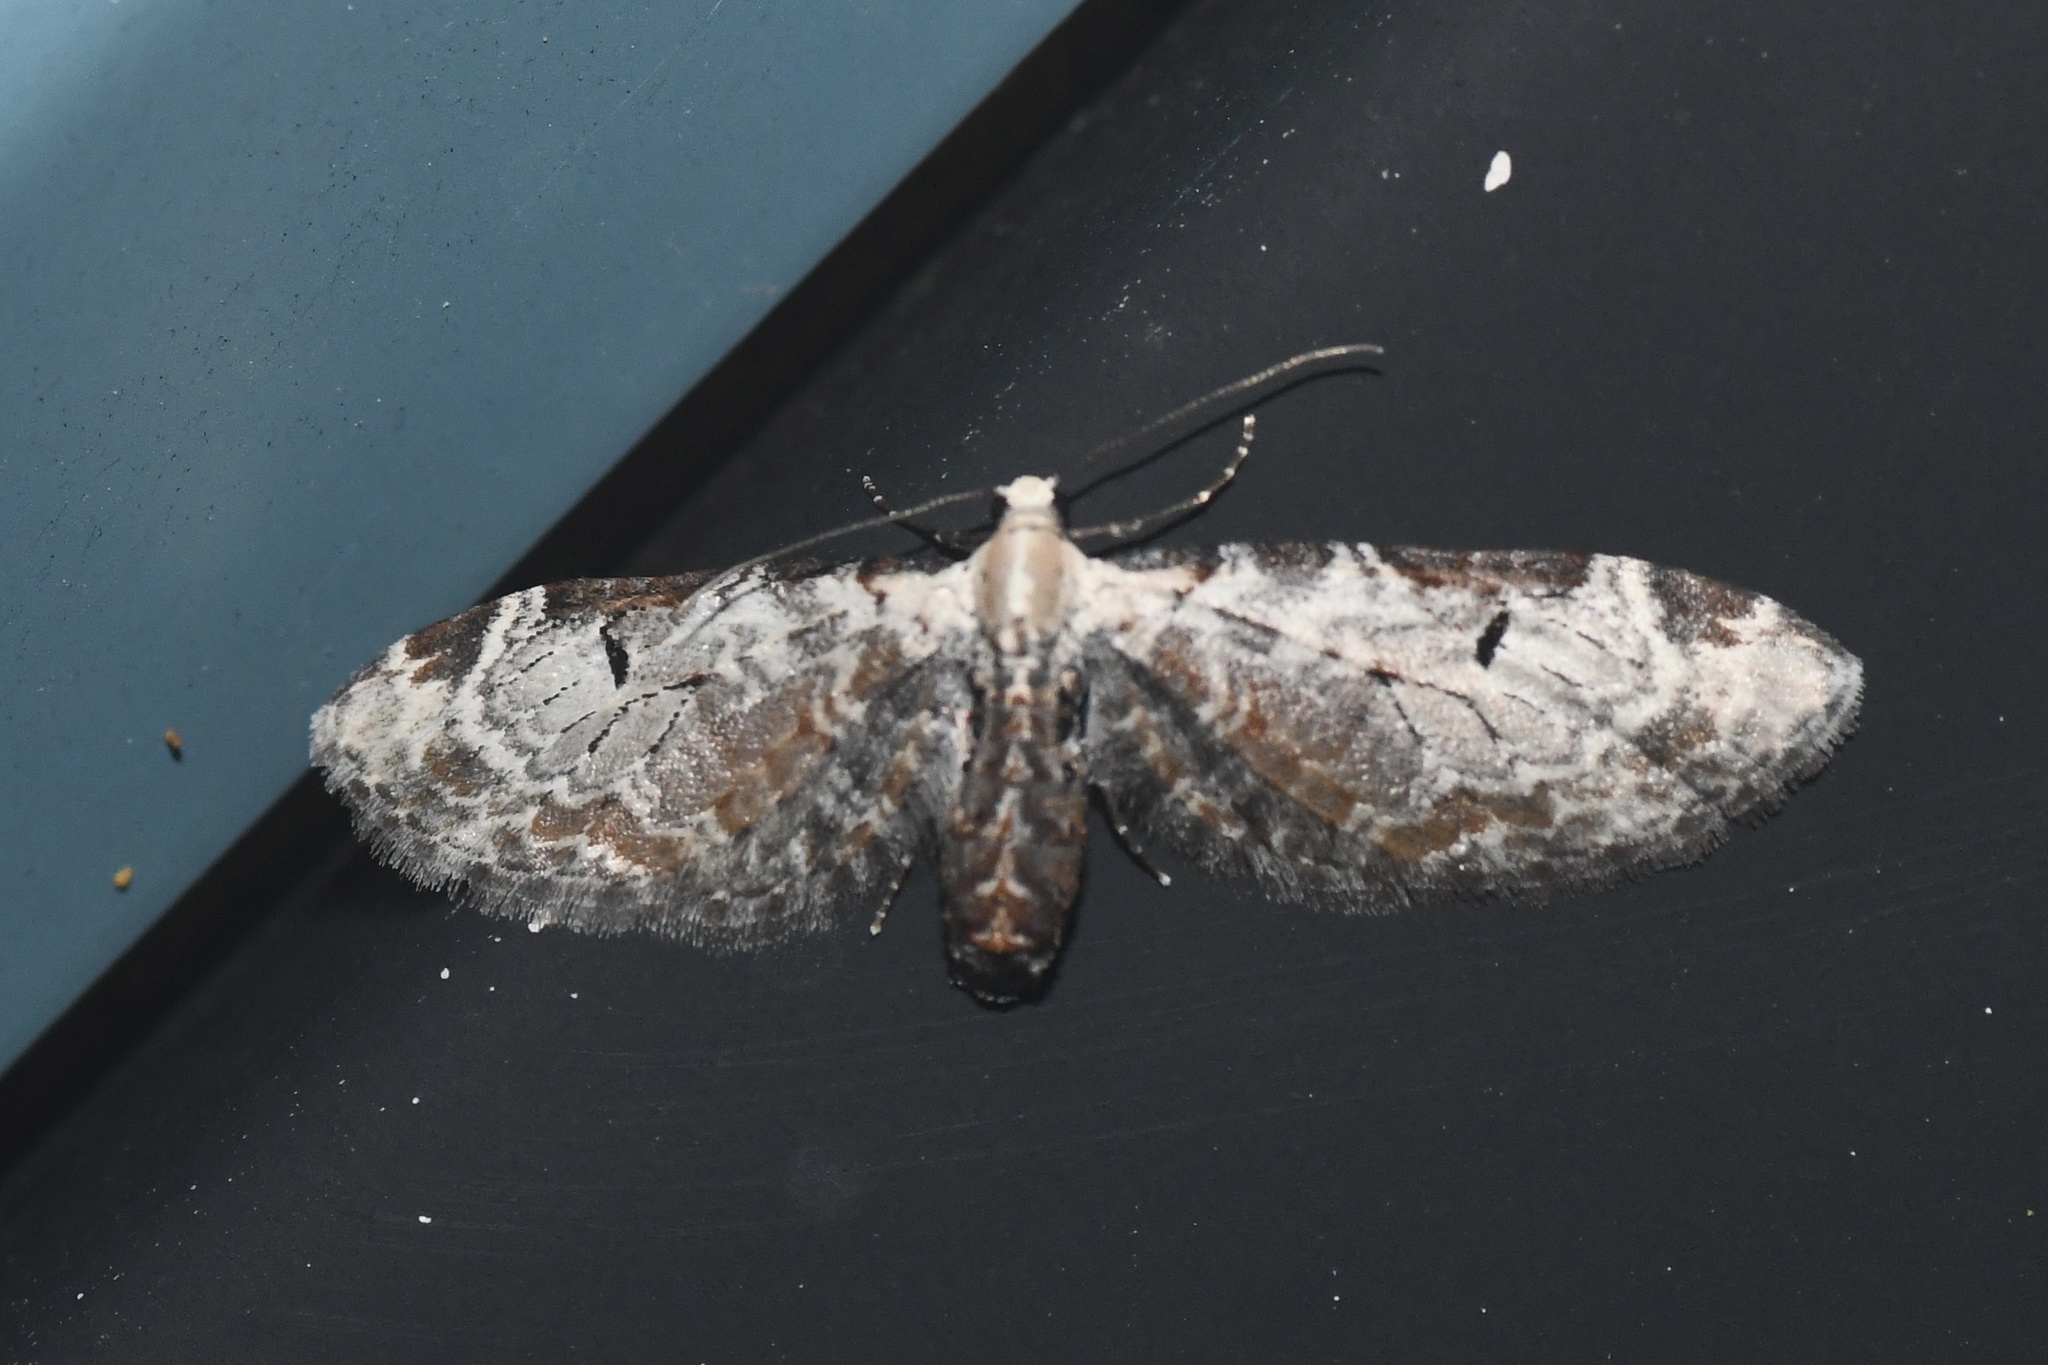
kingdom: Animalia
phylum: Arthropoda
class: Insecta
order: Lepidoptera
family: Geometridae
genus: Eupithecia
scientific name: Eupithecia ravocostaliata
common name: Great varigated pug
